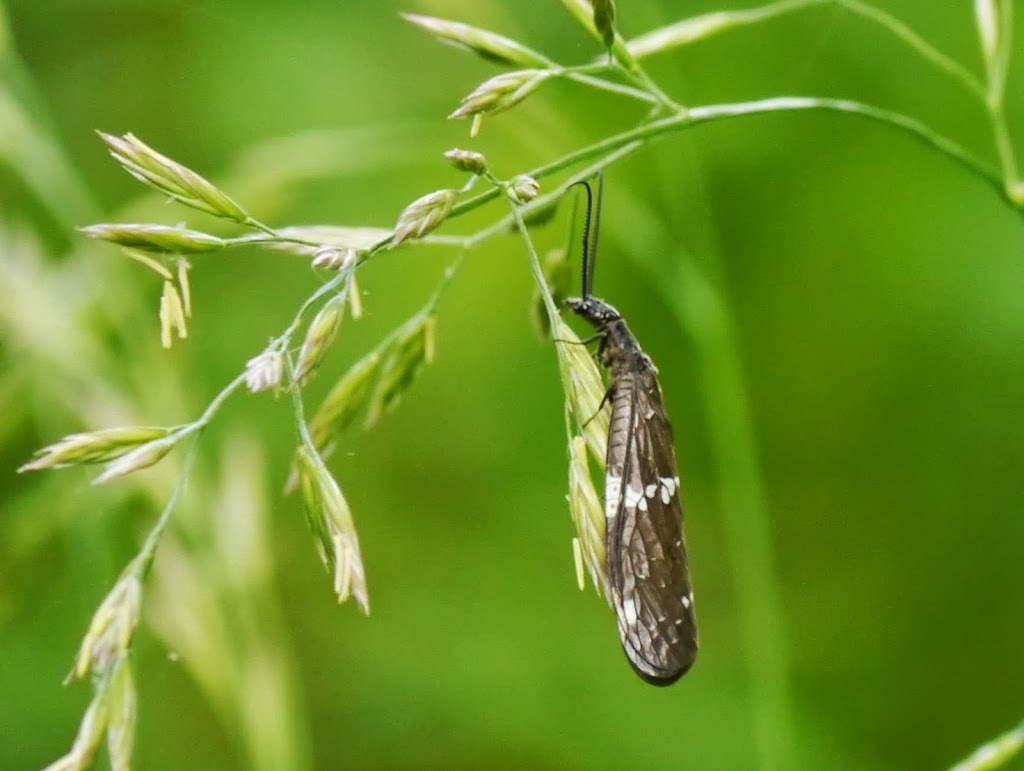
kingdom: Animalia
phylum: Arthropoda
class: Insecta
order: Megaloptera
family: Corydalidae
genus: Nigronia
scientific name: Nigronia serricornis
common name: Serrate dark fishfly
